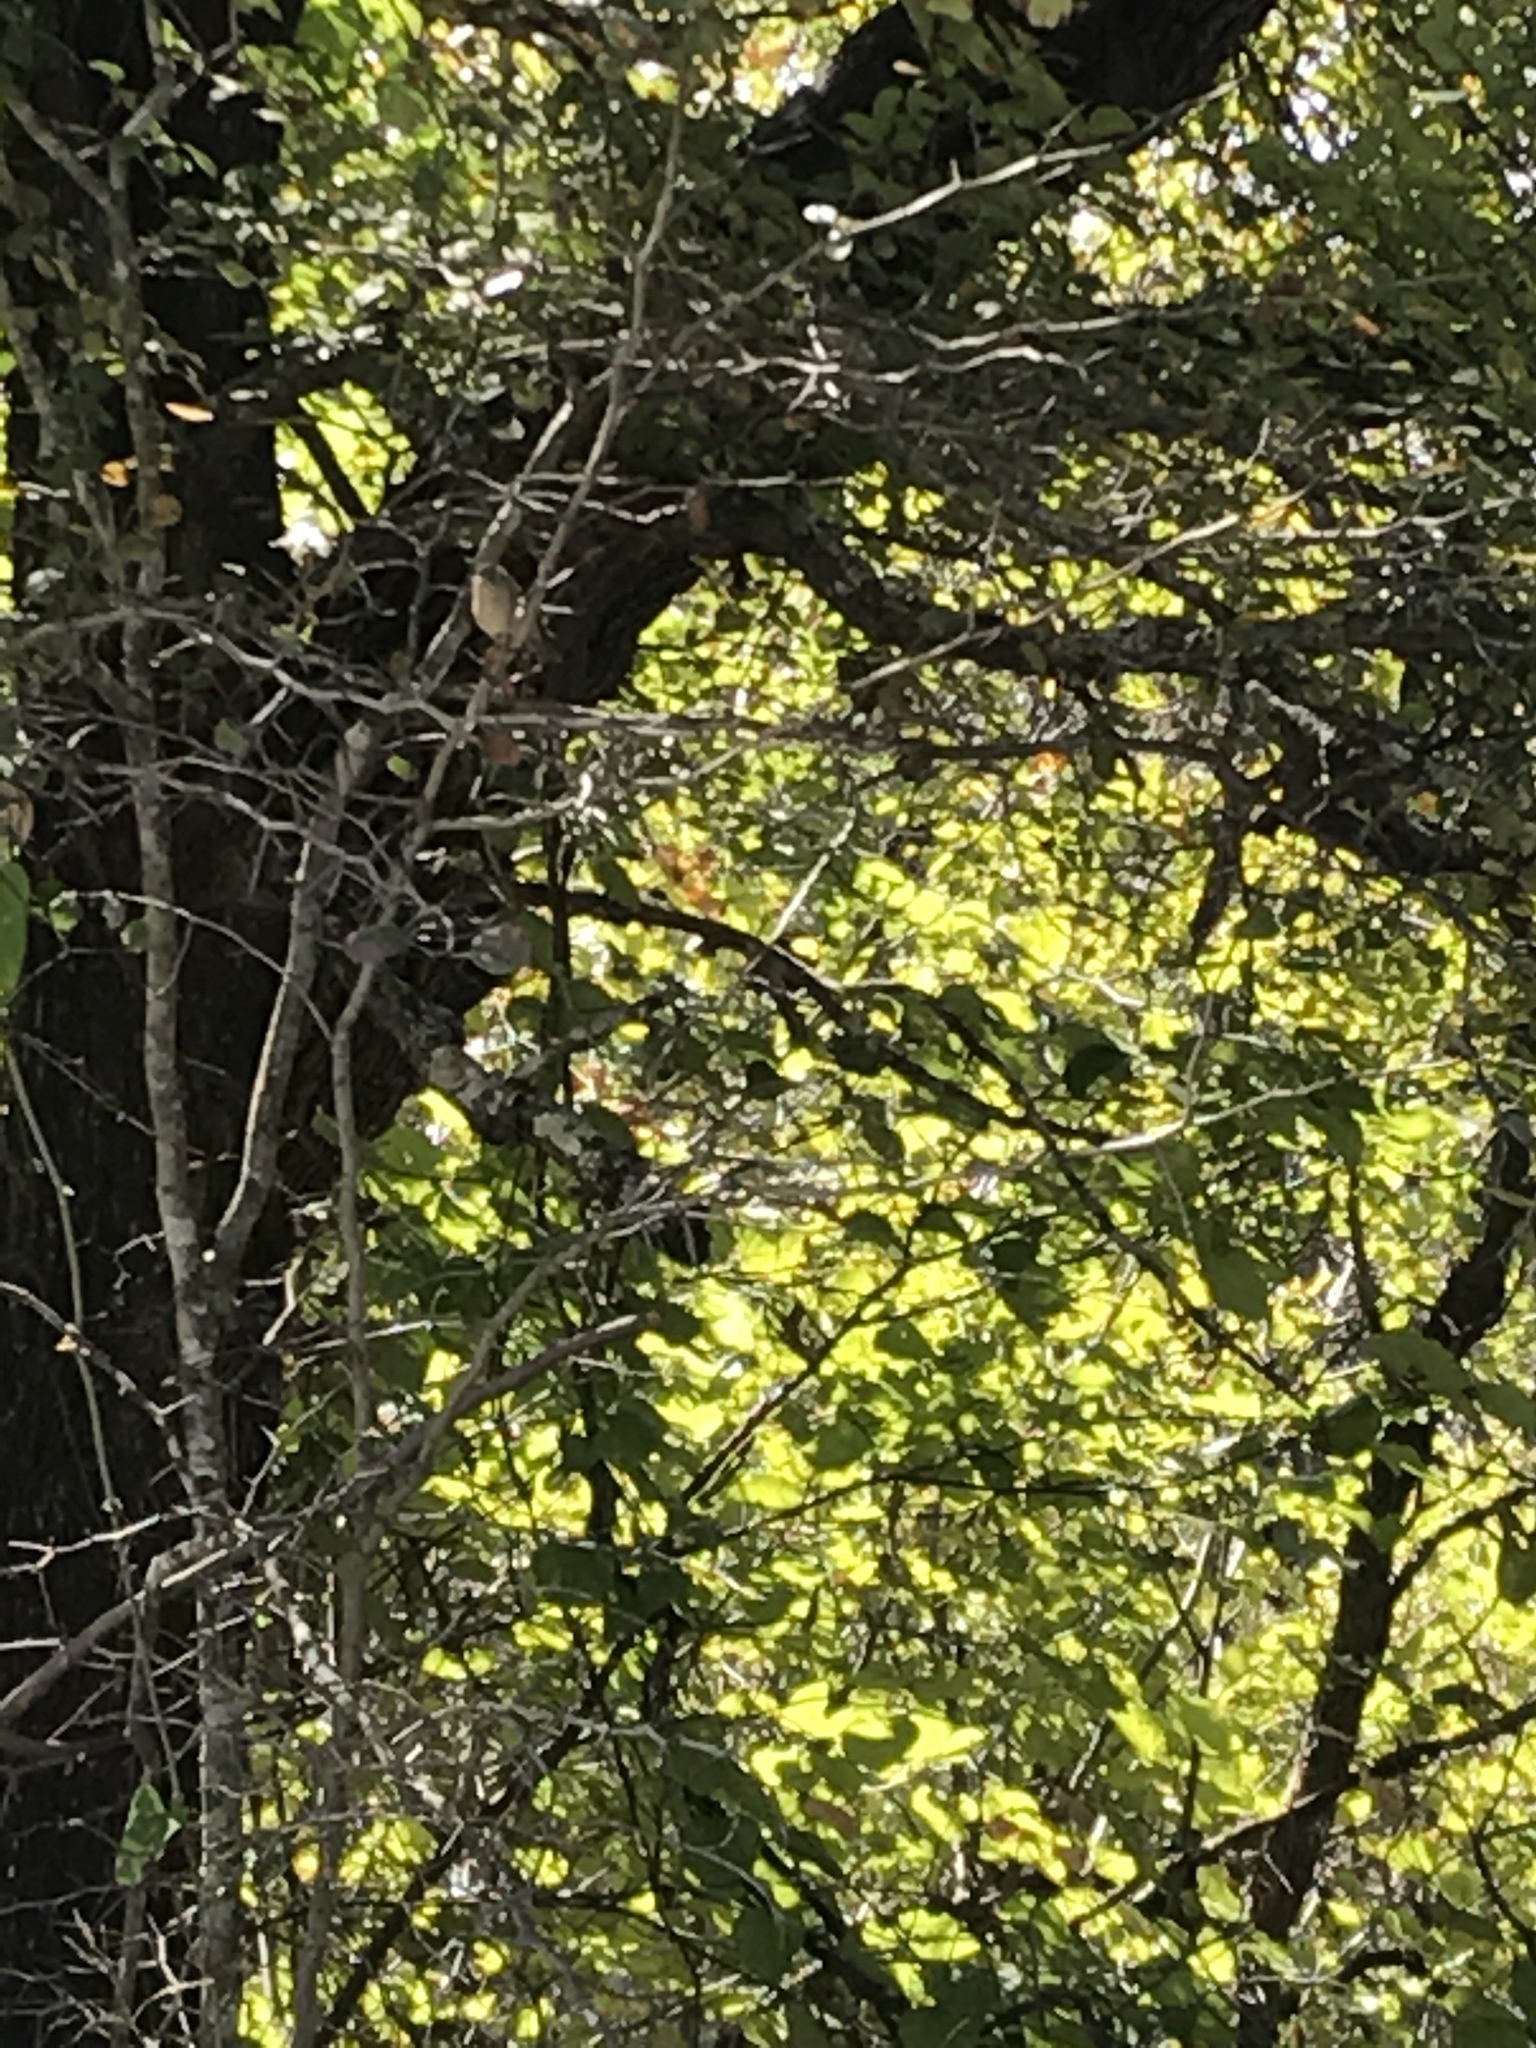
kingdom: Animalia
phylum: Chordata
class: Aves
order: Passeriformes
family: Regulidae
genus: Regulus
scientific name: Regulus calendula
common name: Ruby-crowned kinglet
